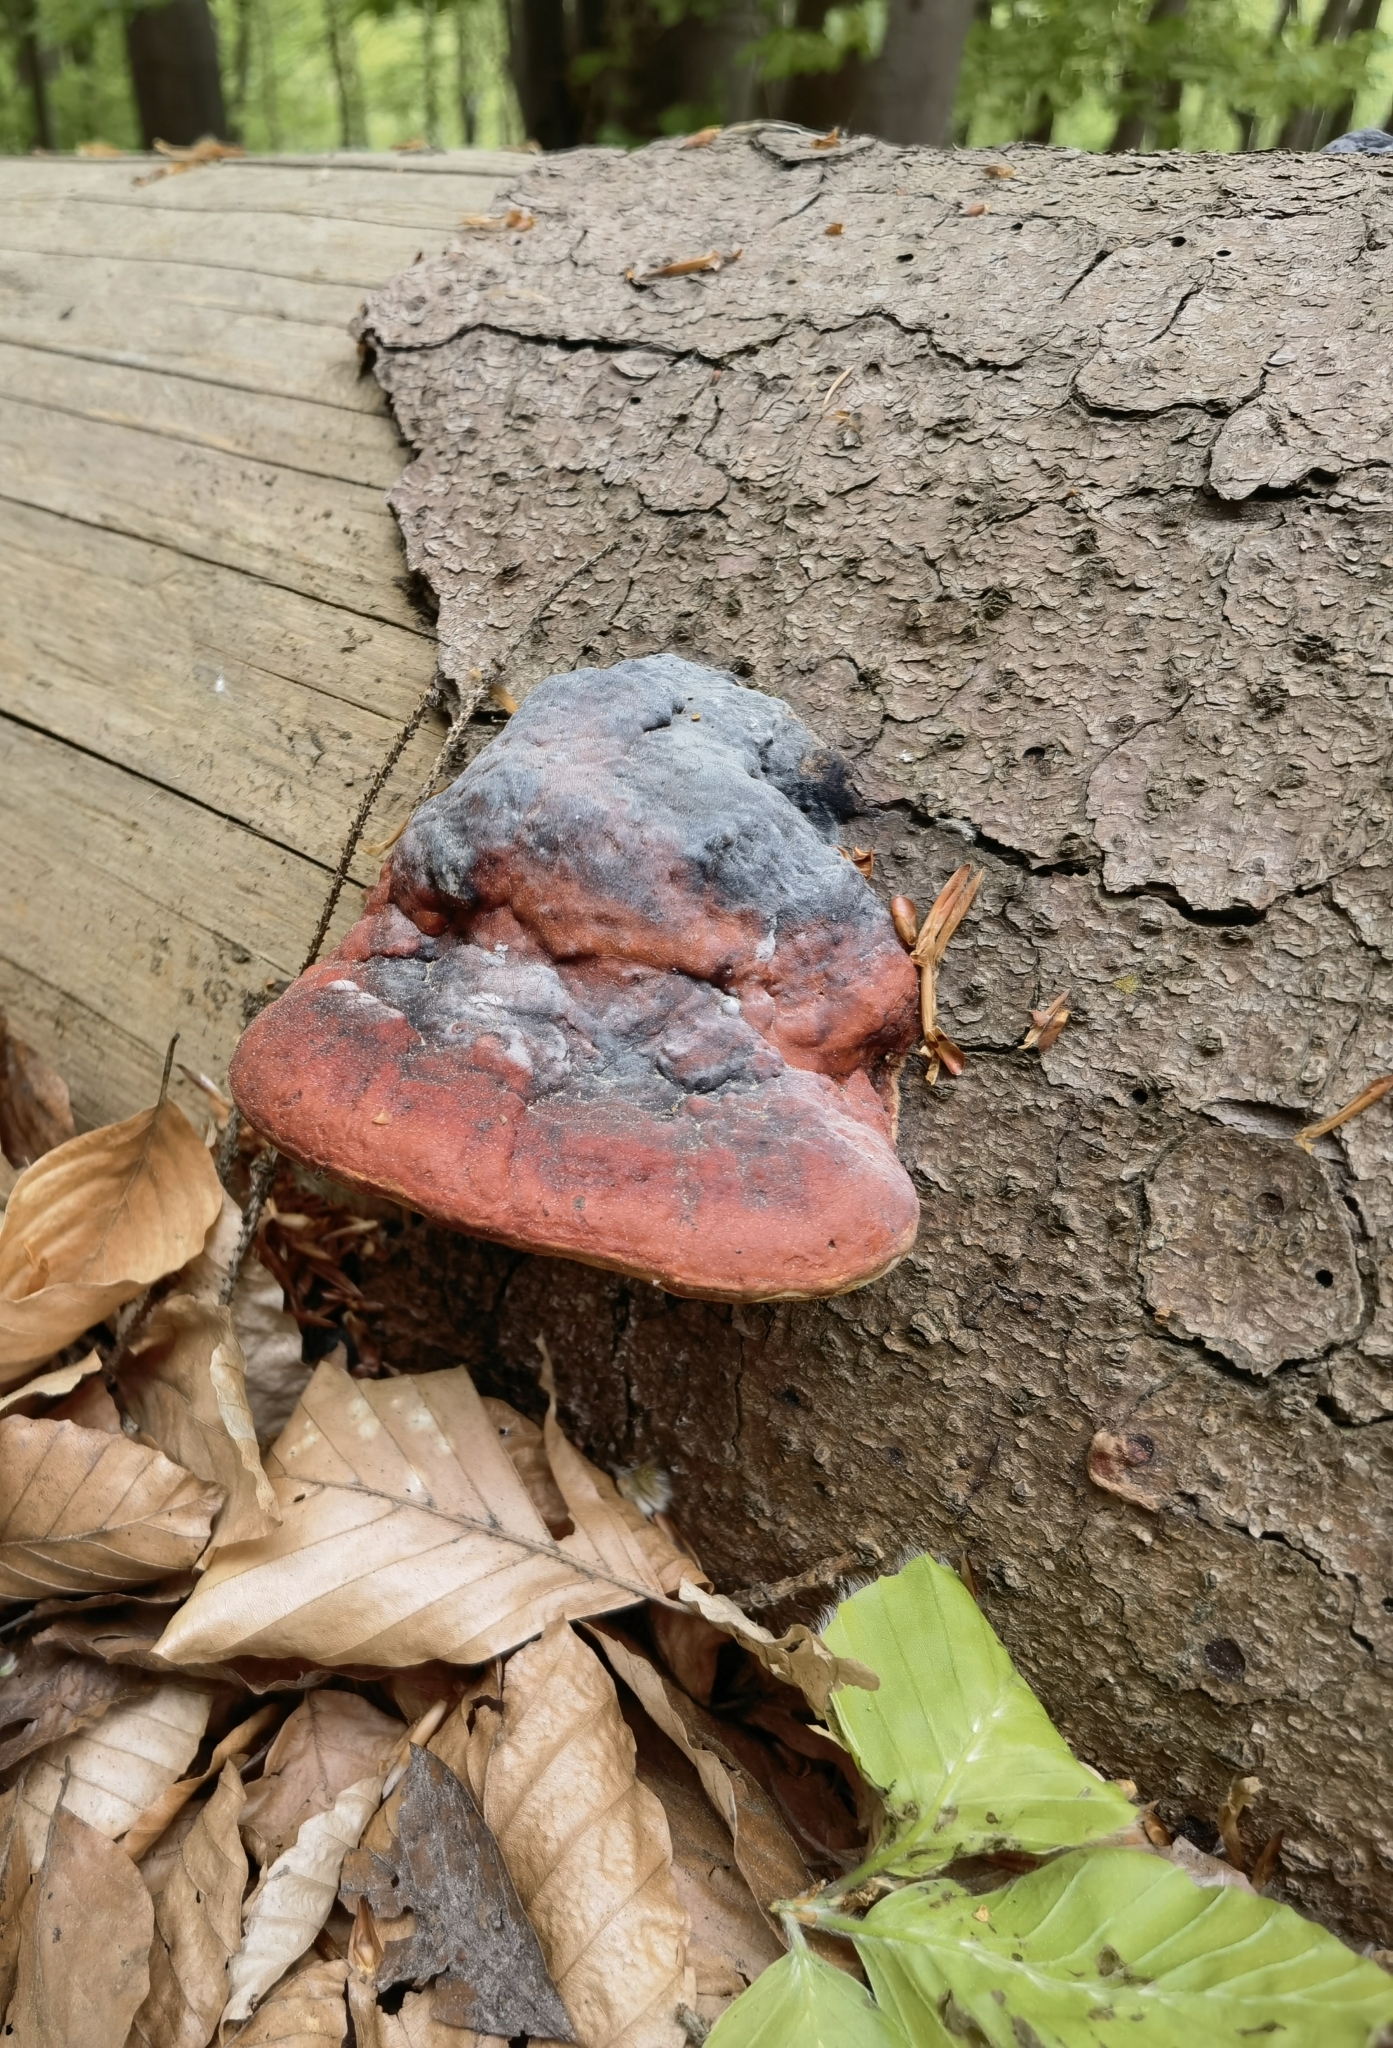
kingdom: Fungi
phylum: Basidiomycota
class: Agaricomycetes
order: Polyporales
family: Fomitopsidaceae
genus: Fomitopsis
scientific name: Fomitopsis pinicola
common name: Red-belted bracket
